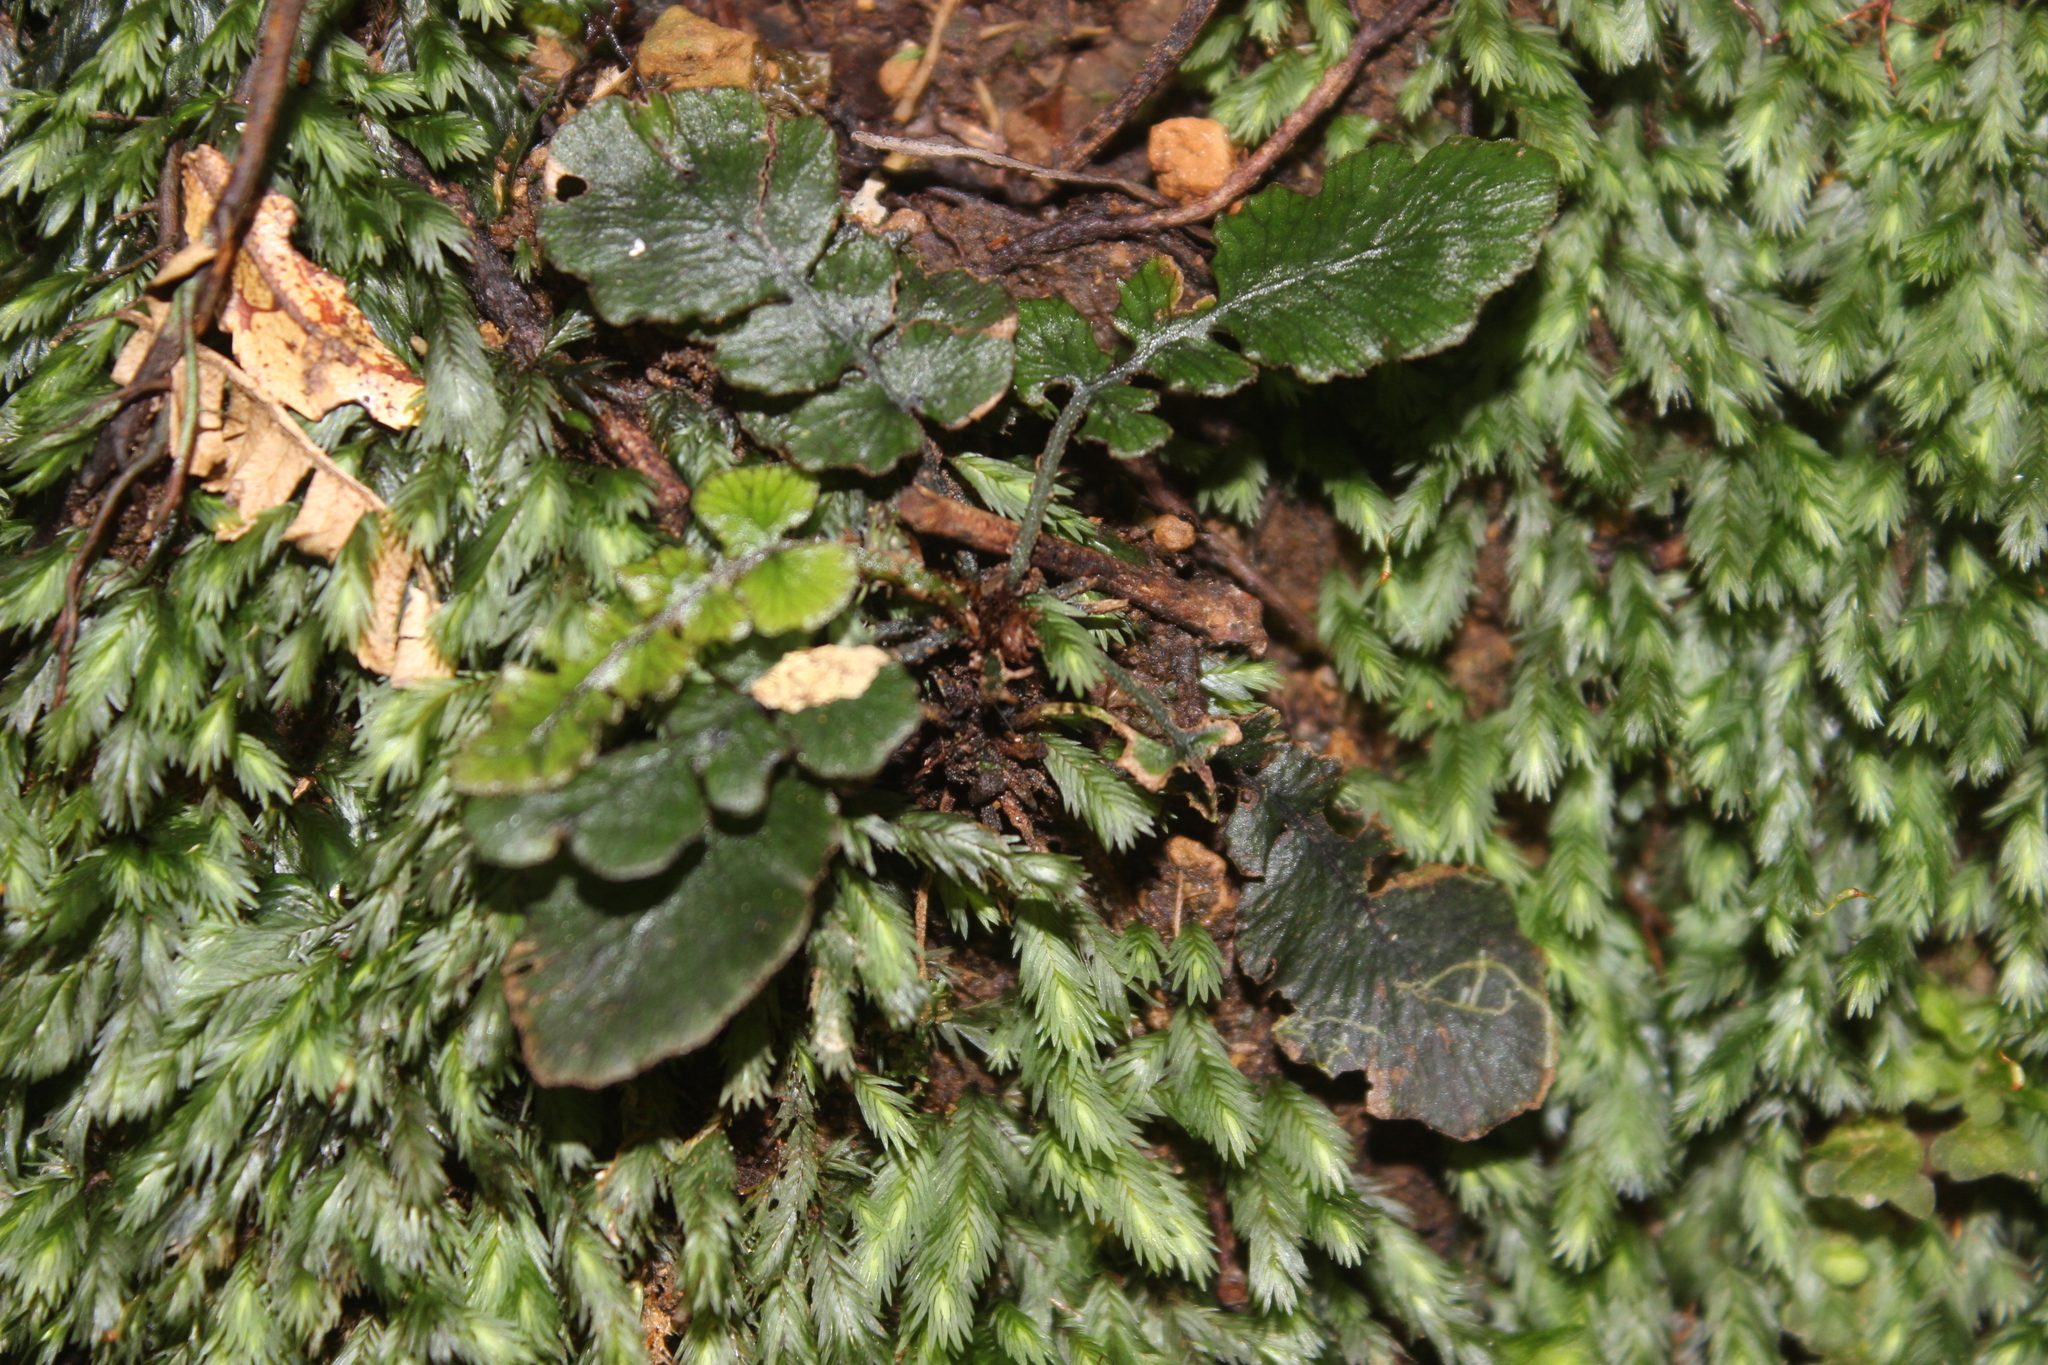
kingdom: Plantae
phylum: Tracheophyta
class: Polypodiopsida
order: Polypodiales
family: Blechnaceae
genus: Cranfillia
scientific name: Cranfillia nigra
